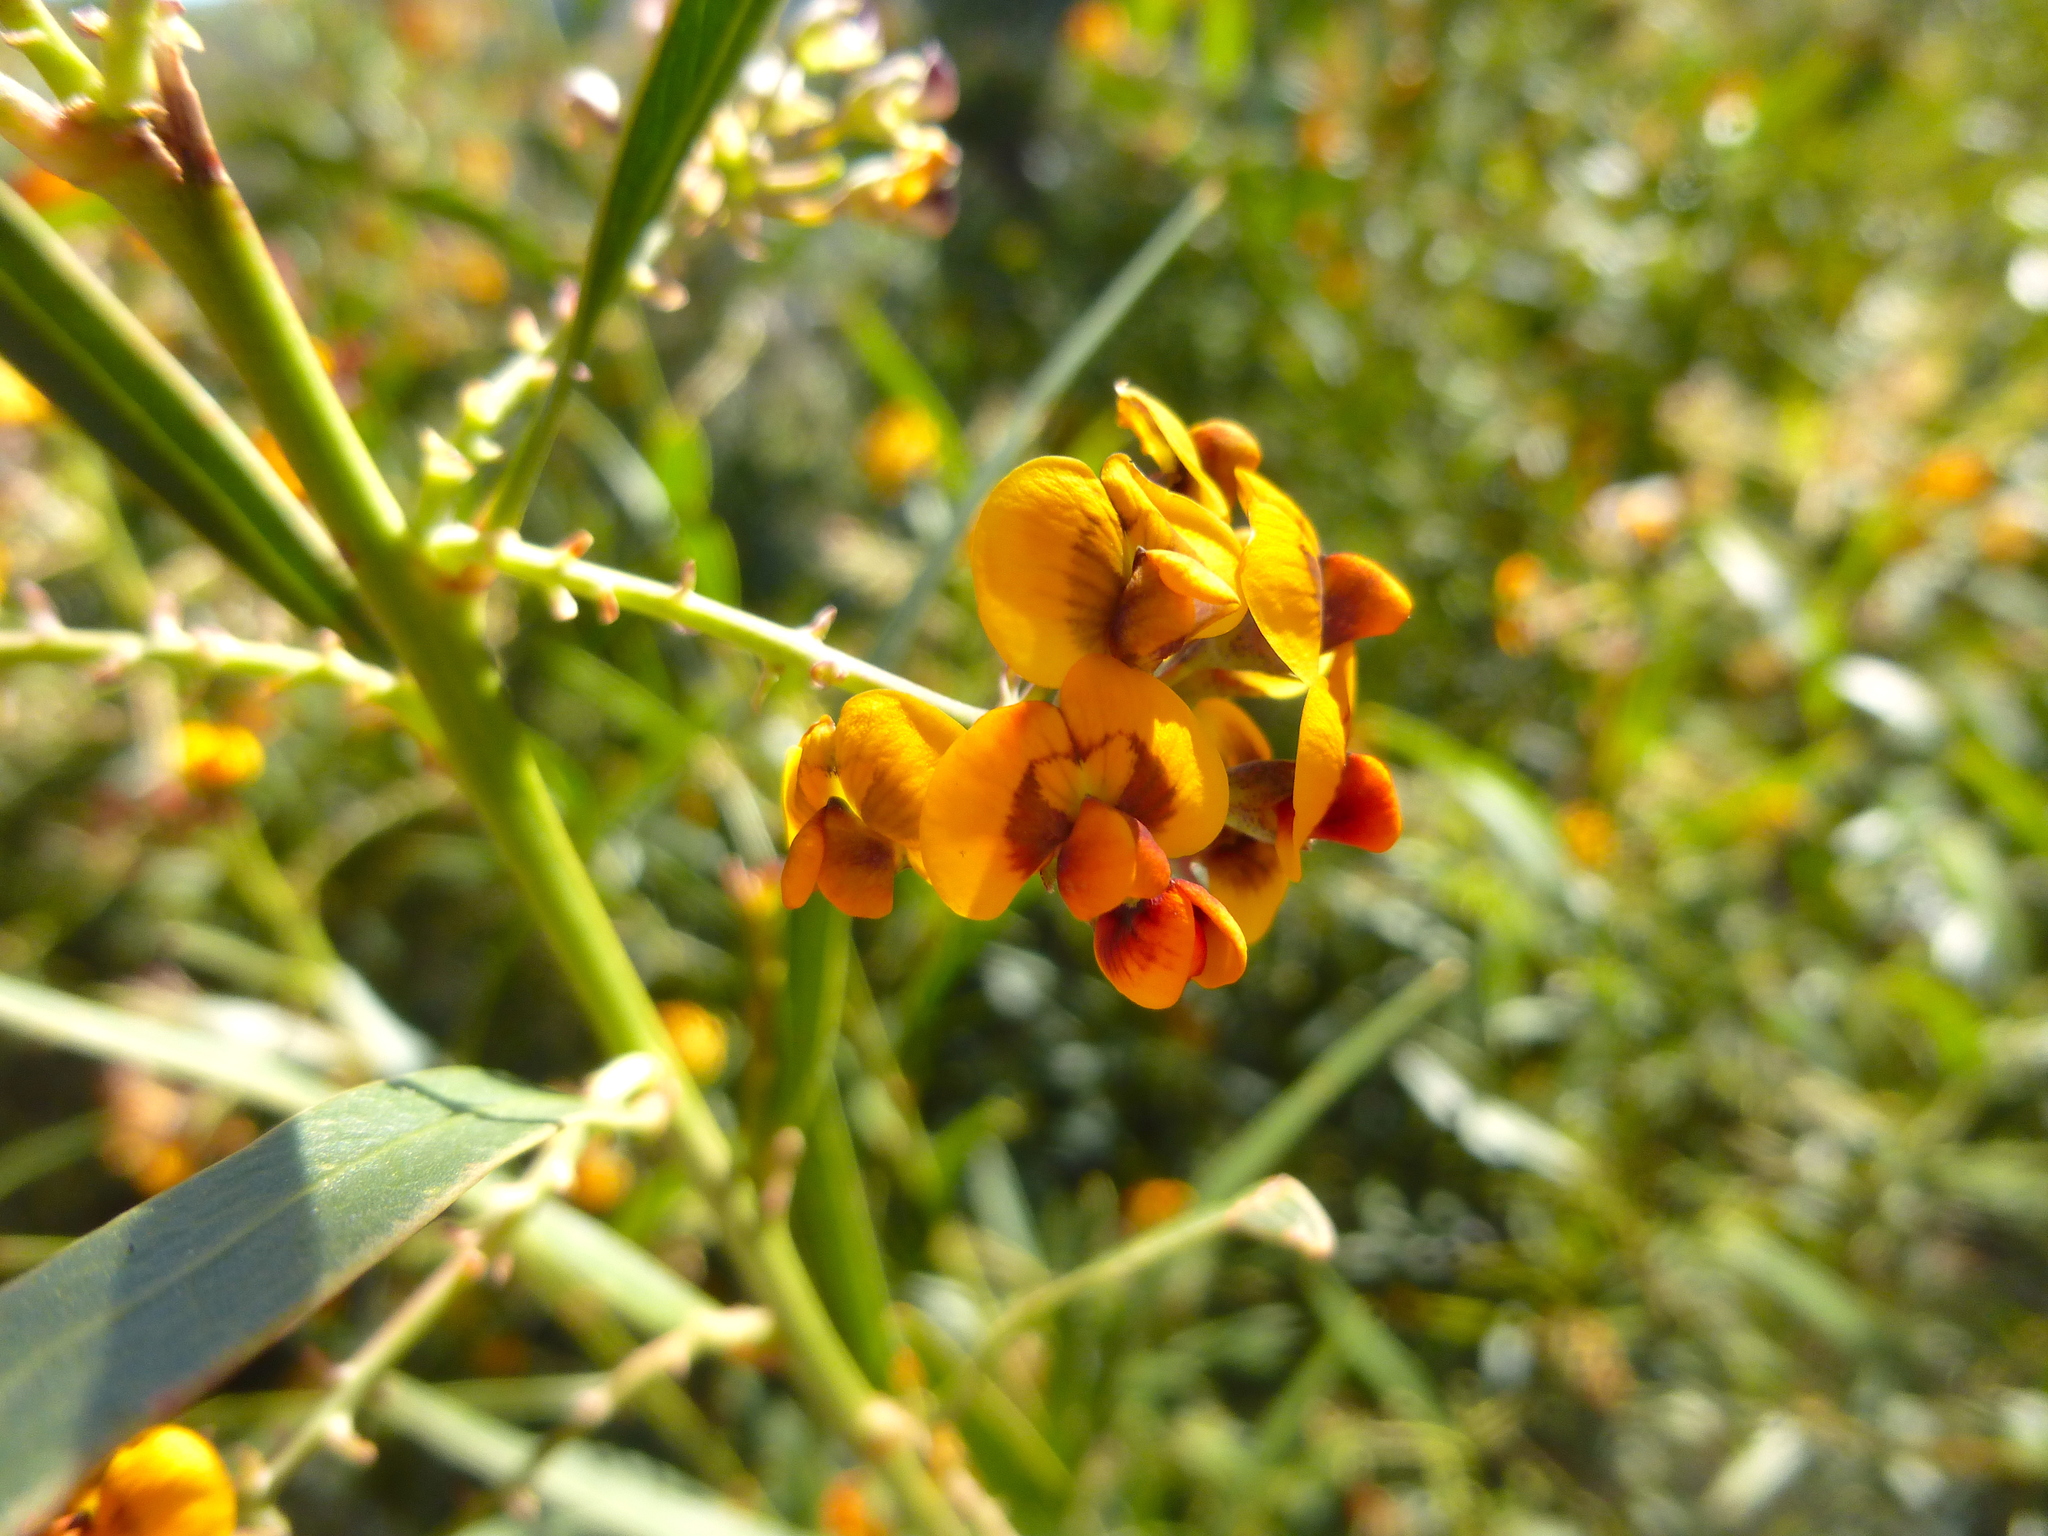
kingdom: Plantae
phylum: Tracheophyta
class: Magnoliopsida
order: Fabales
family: Fabaceae
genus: Daviesia
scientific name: Daviesia corymbosa
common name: Narrow-leaf bitter-pea
